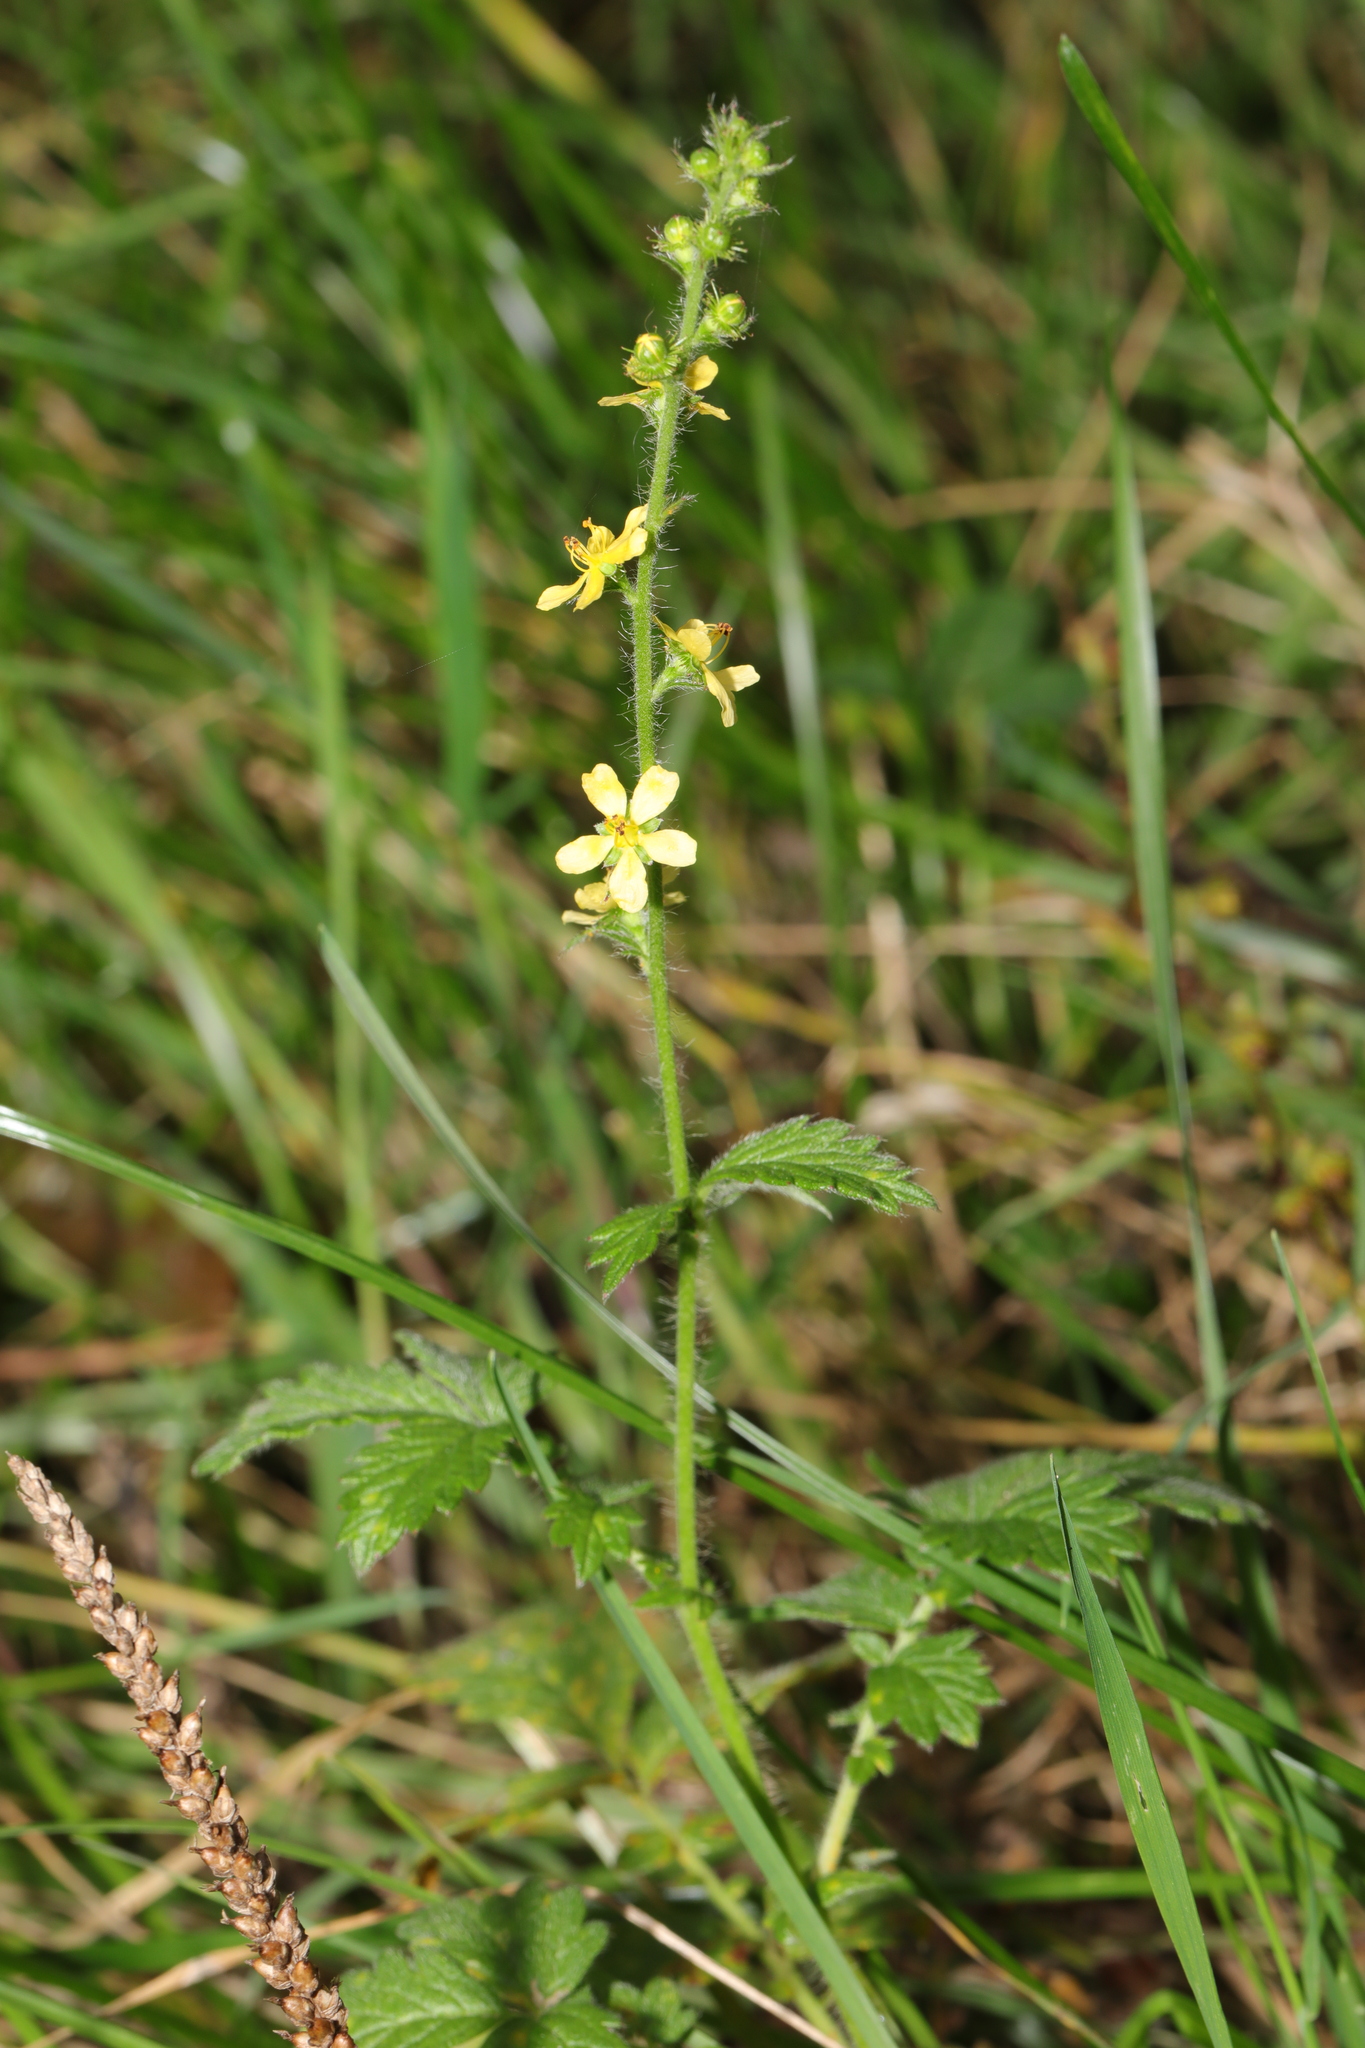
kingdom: Plantae
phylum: Tracheophyta
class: Magnoliopsida
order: Rosales
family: Rosaceae
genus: Agrimonia
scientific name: Agrimonia eupatoria
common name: Agrimony
